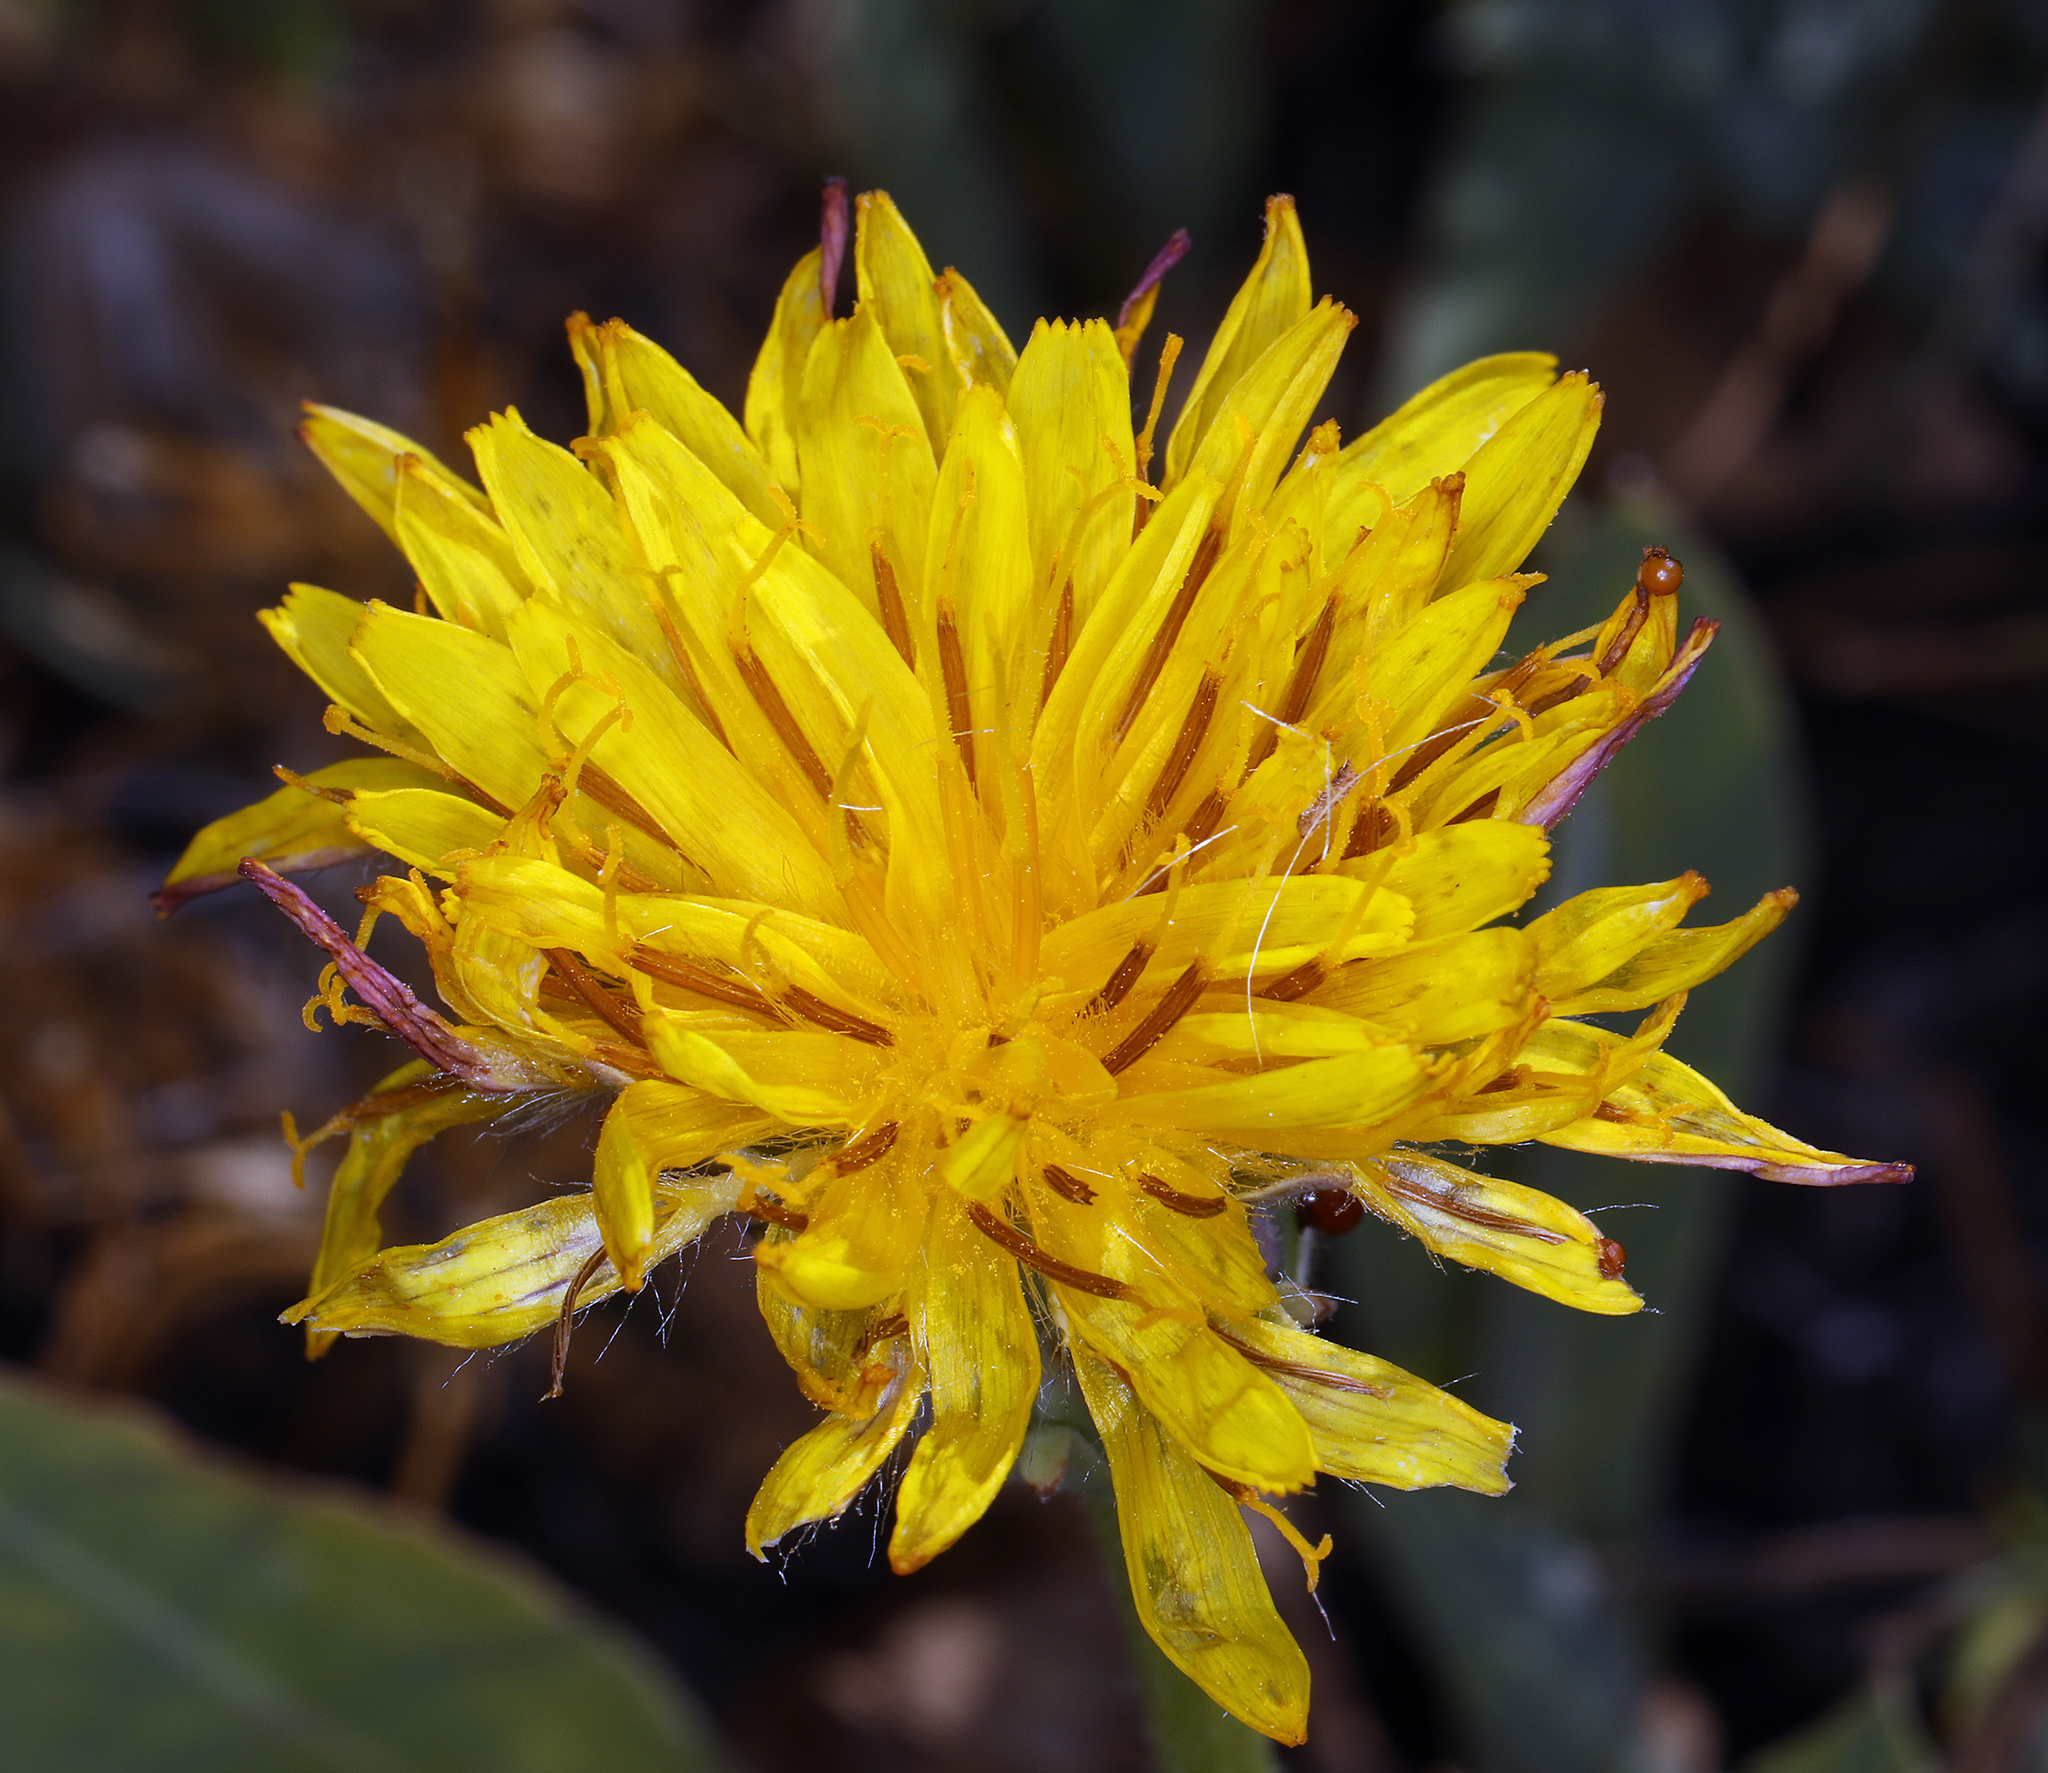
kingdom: Plantae
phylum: Tracheophyta
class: Magnoliopsida
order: Asterales
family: Asteraceae
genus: Agoseris
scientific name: Agoseris glauca
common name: Prairie agoseris
